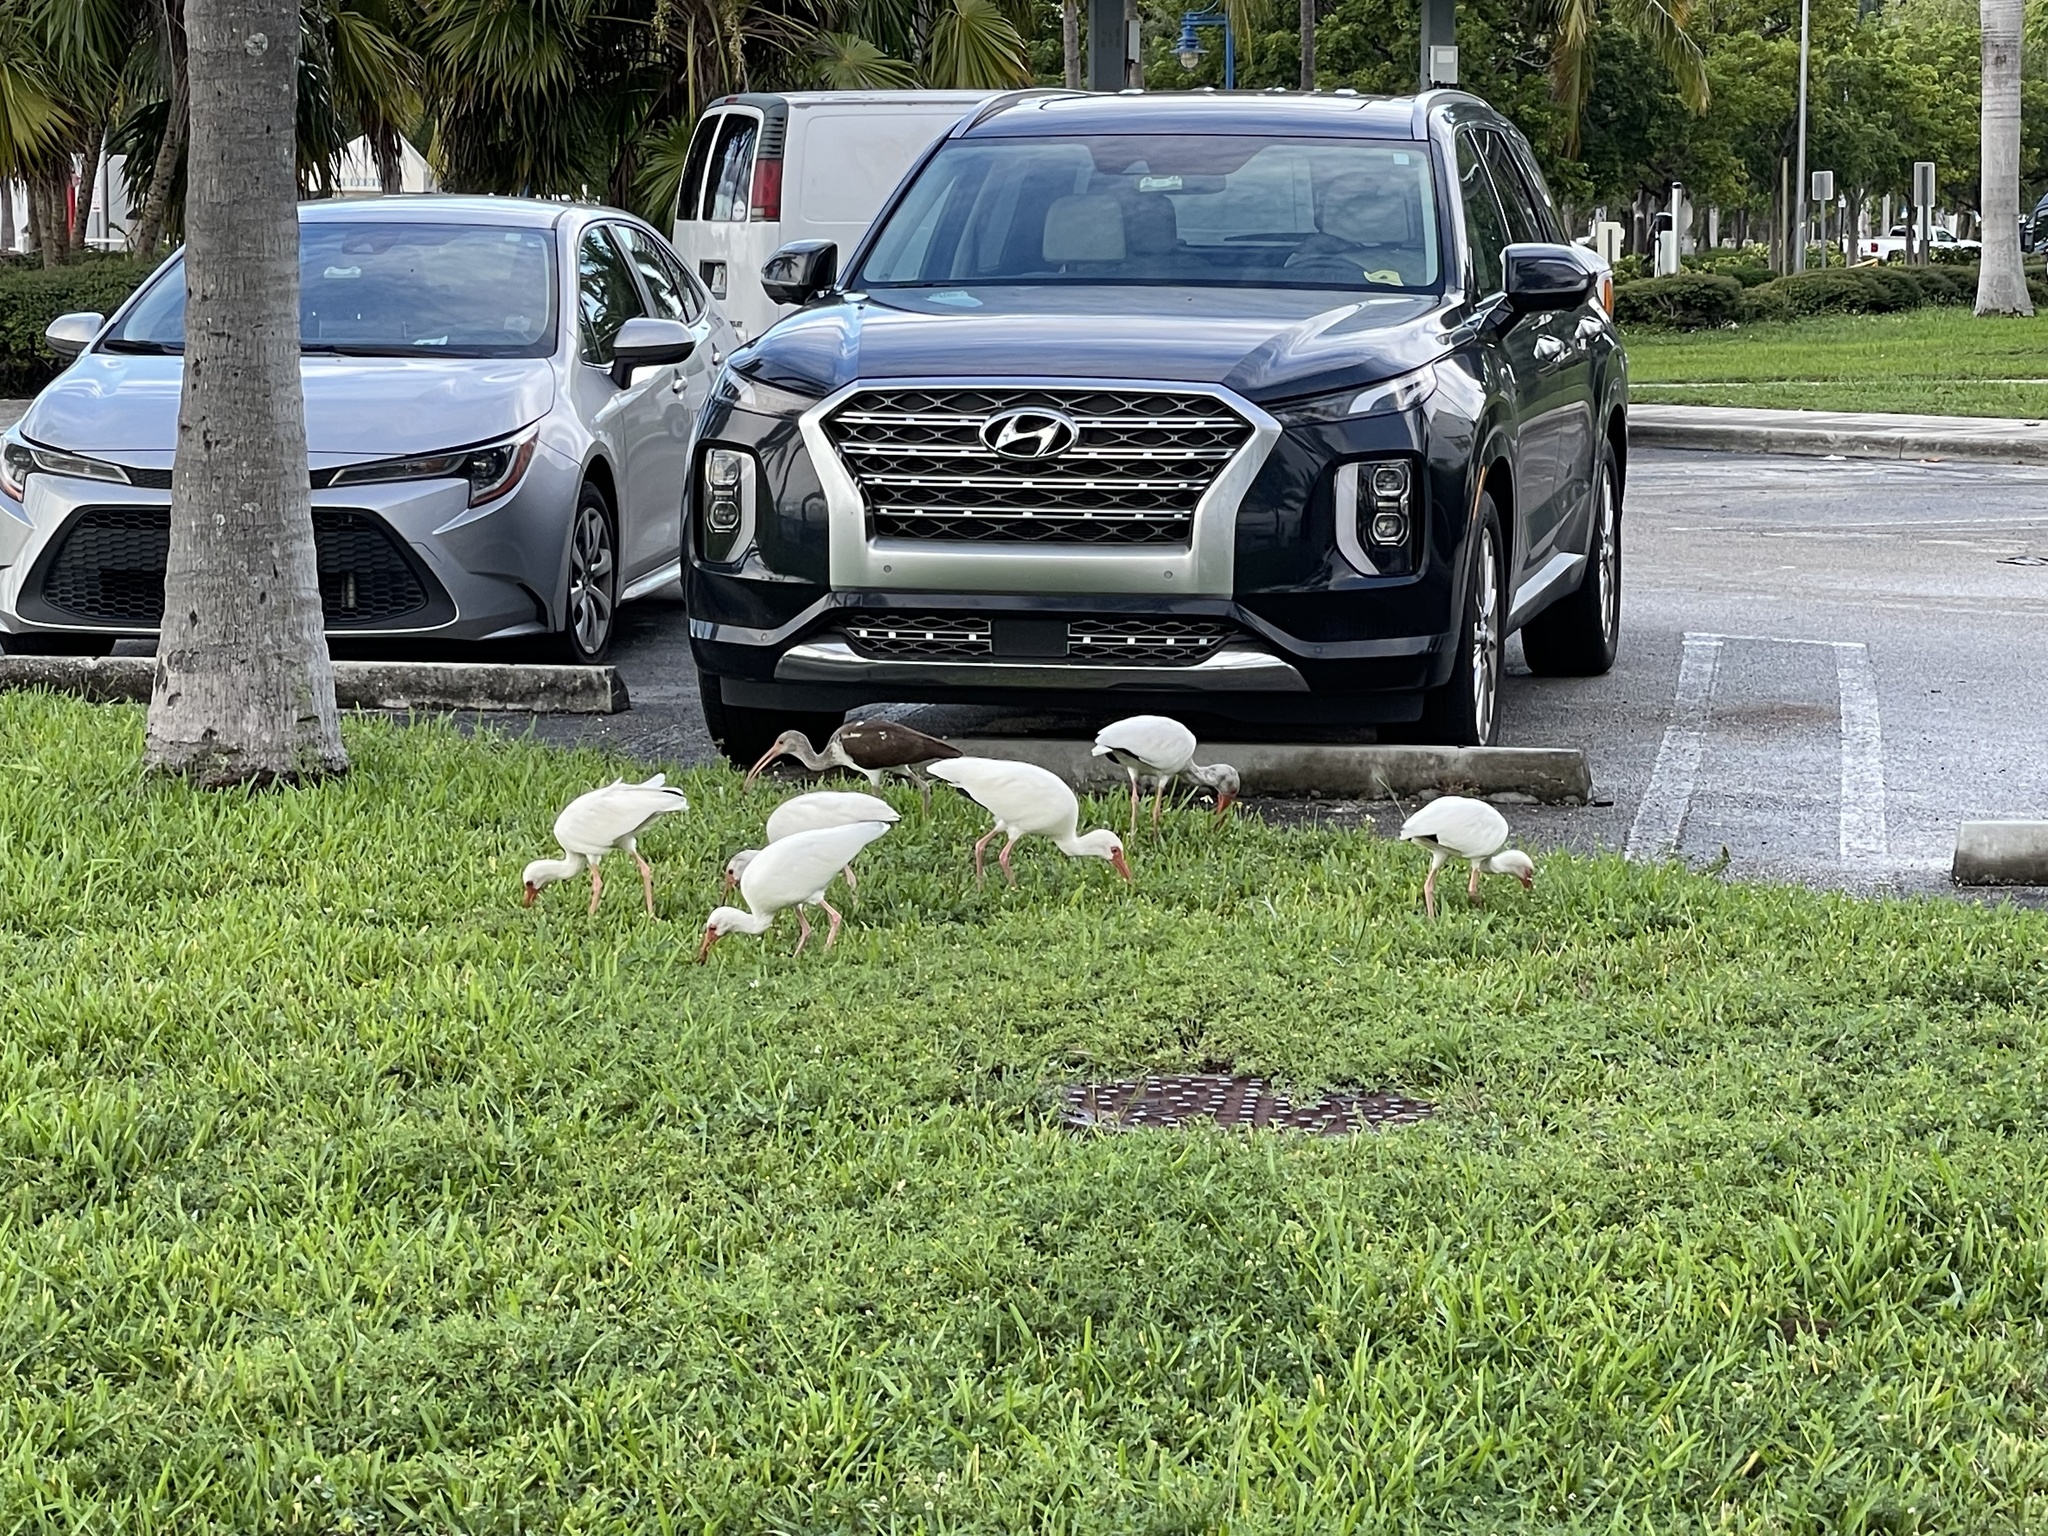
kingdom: Animalia
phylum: Chordata
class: Aves
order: Pelecaniformes
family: Threskiornithidae
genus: Eudocimus
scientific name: Eudocimus albus
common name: White ibis
